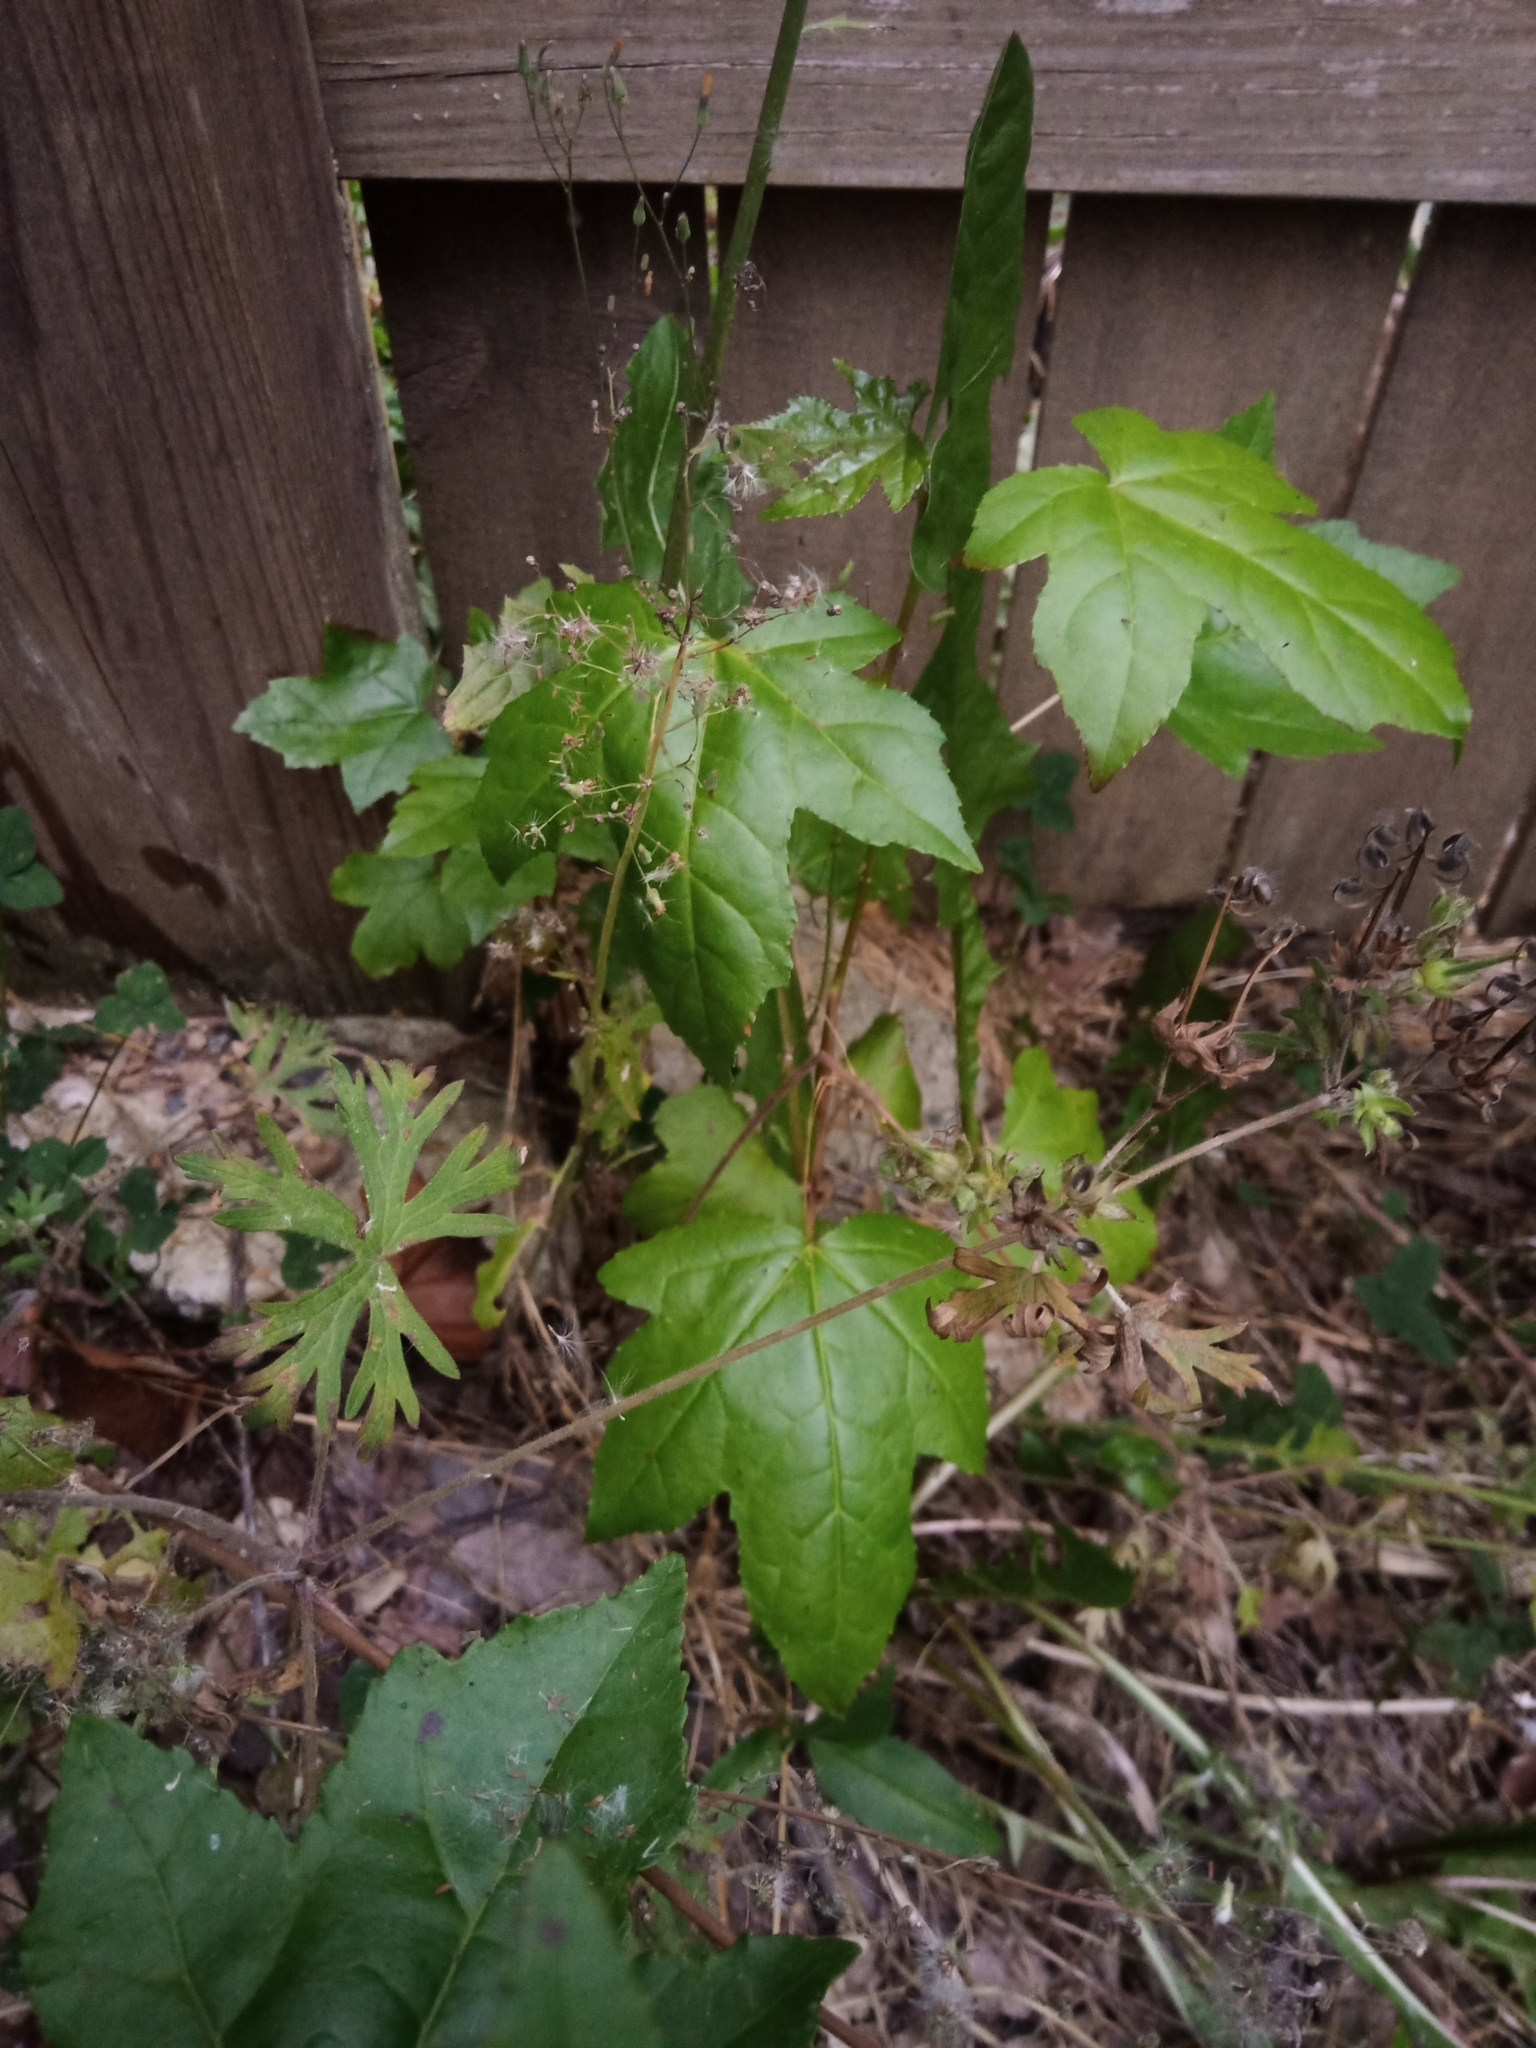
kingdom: Plantae
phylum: Tracheophyta
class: Magnoliopsida
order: Saxifragales
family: Altingiaceae
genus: Liquidambar
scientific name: Liquidambar styraciflua
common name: Sweet gum
